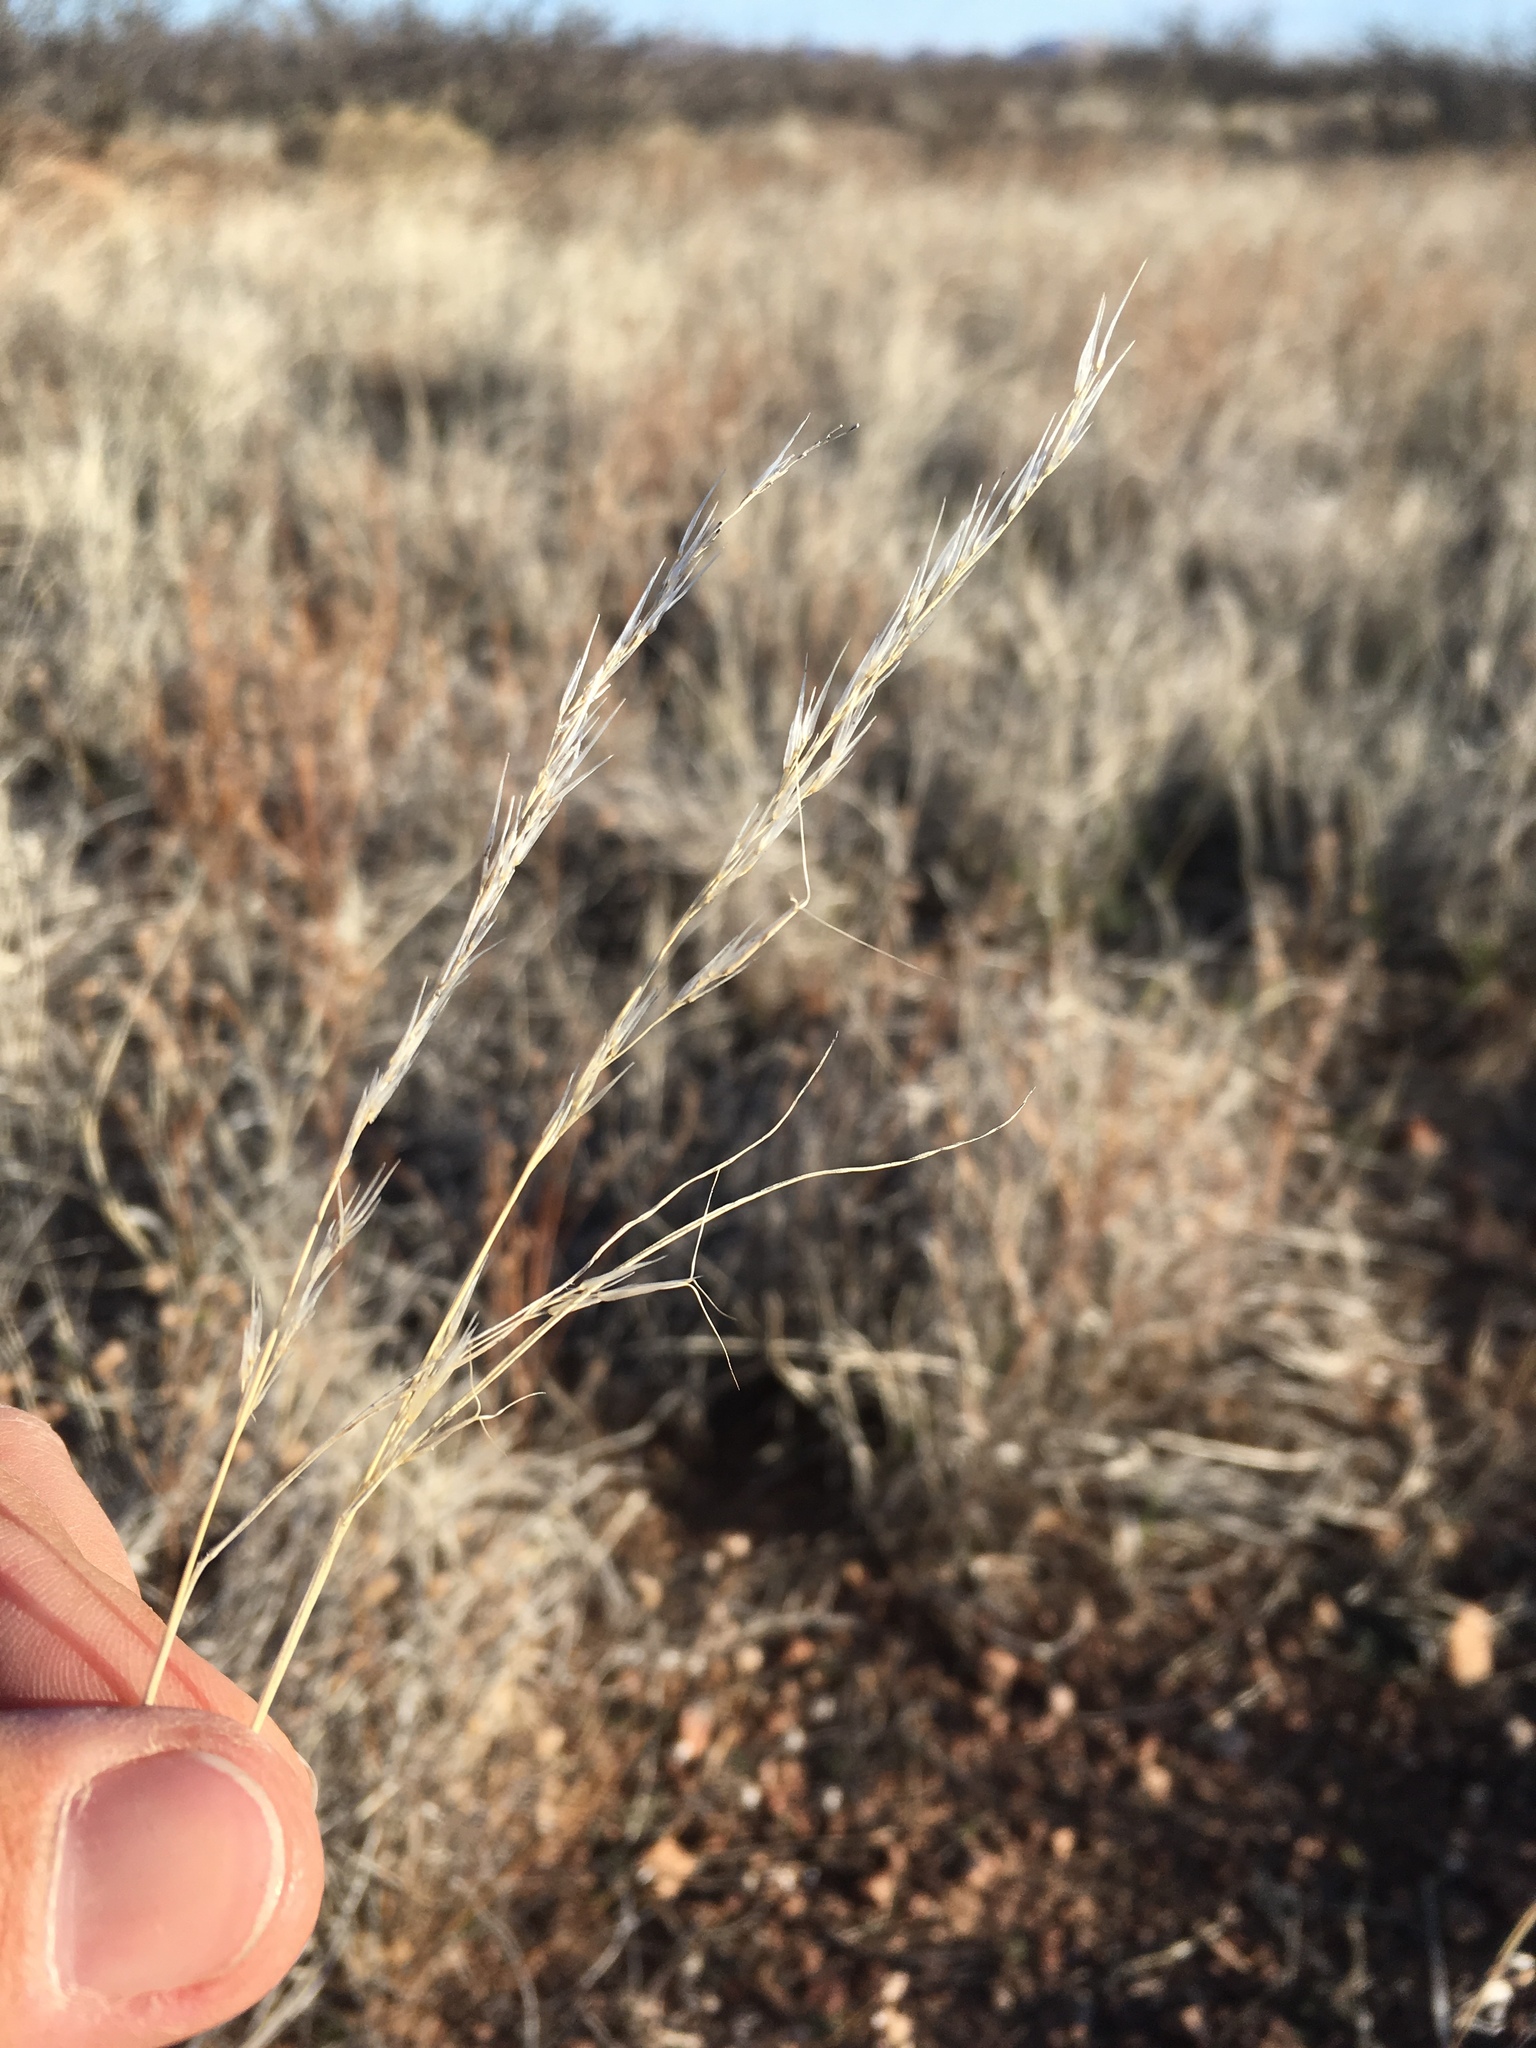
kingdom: Plantae
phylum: Tracheophyta
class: Liliopsida
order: Poales
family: Poaceae
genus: Aristida
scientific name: Aristida adscensionis
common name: Sixweeks threeawn
